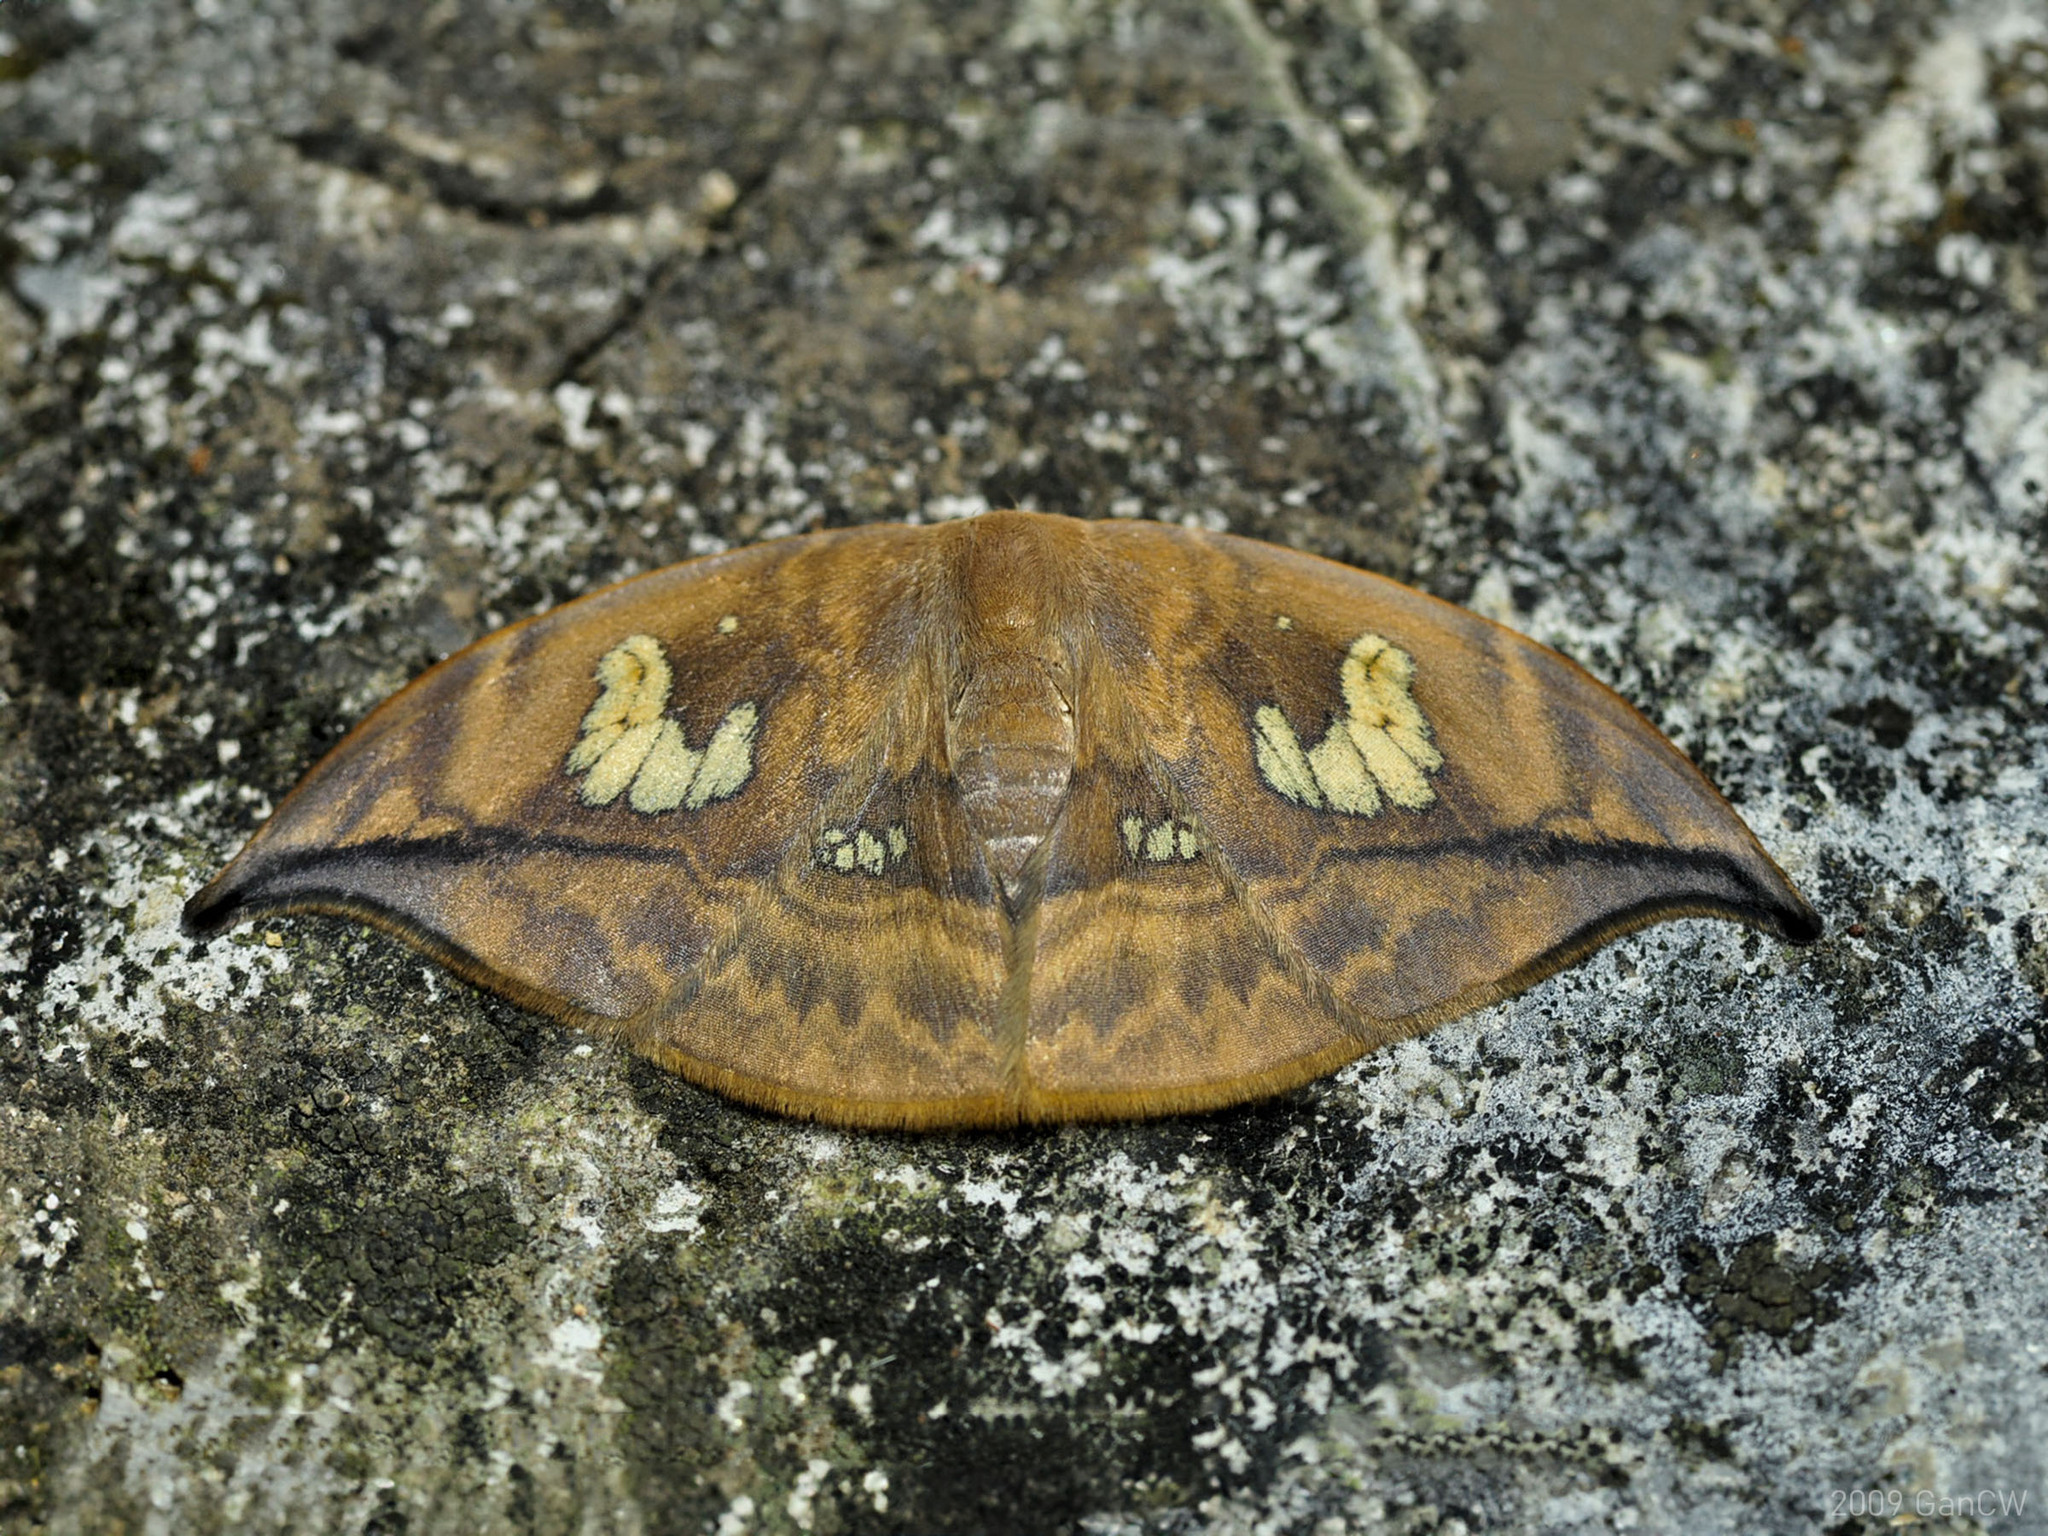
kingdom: Animalia
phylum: Arthropoda
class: Insecta
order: Lepidoptera
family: Drepanidae
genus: Agnidra
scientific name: Agnidra fuscilinea
